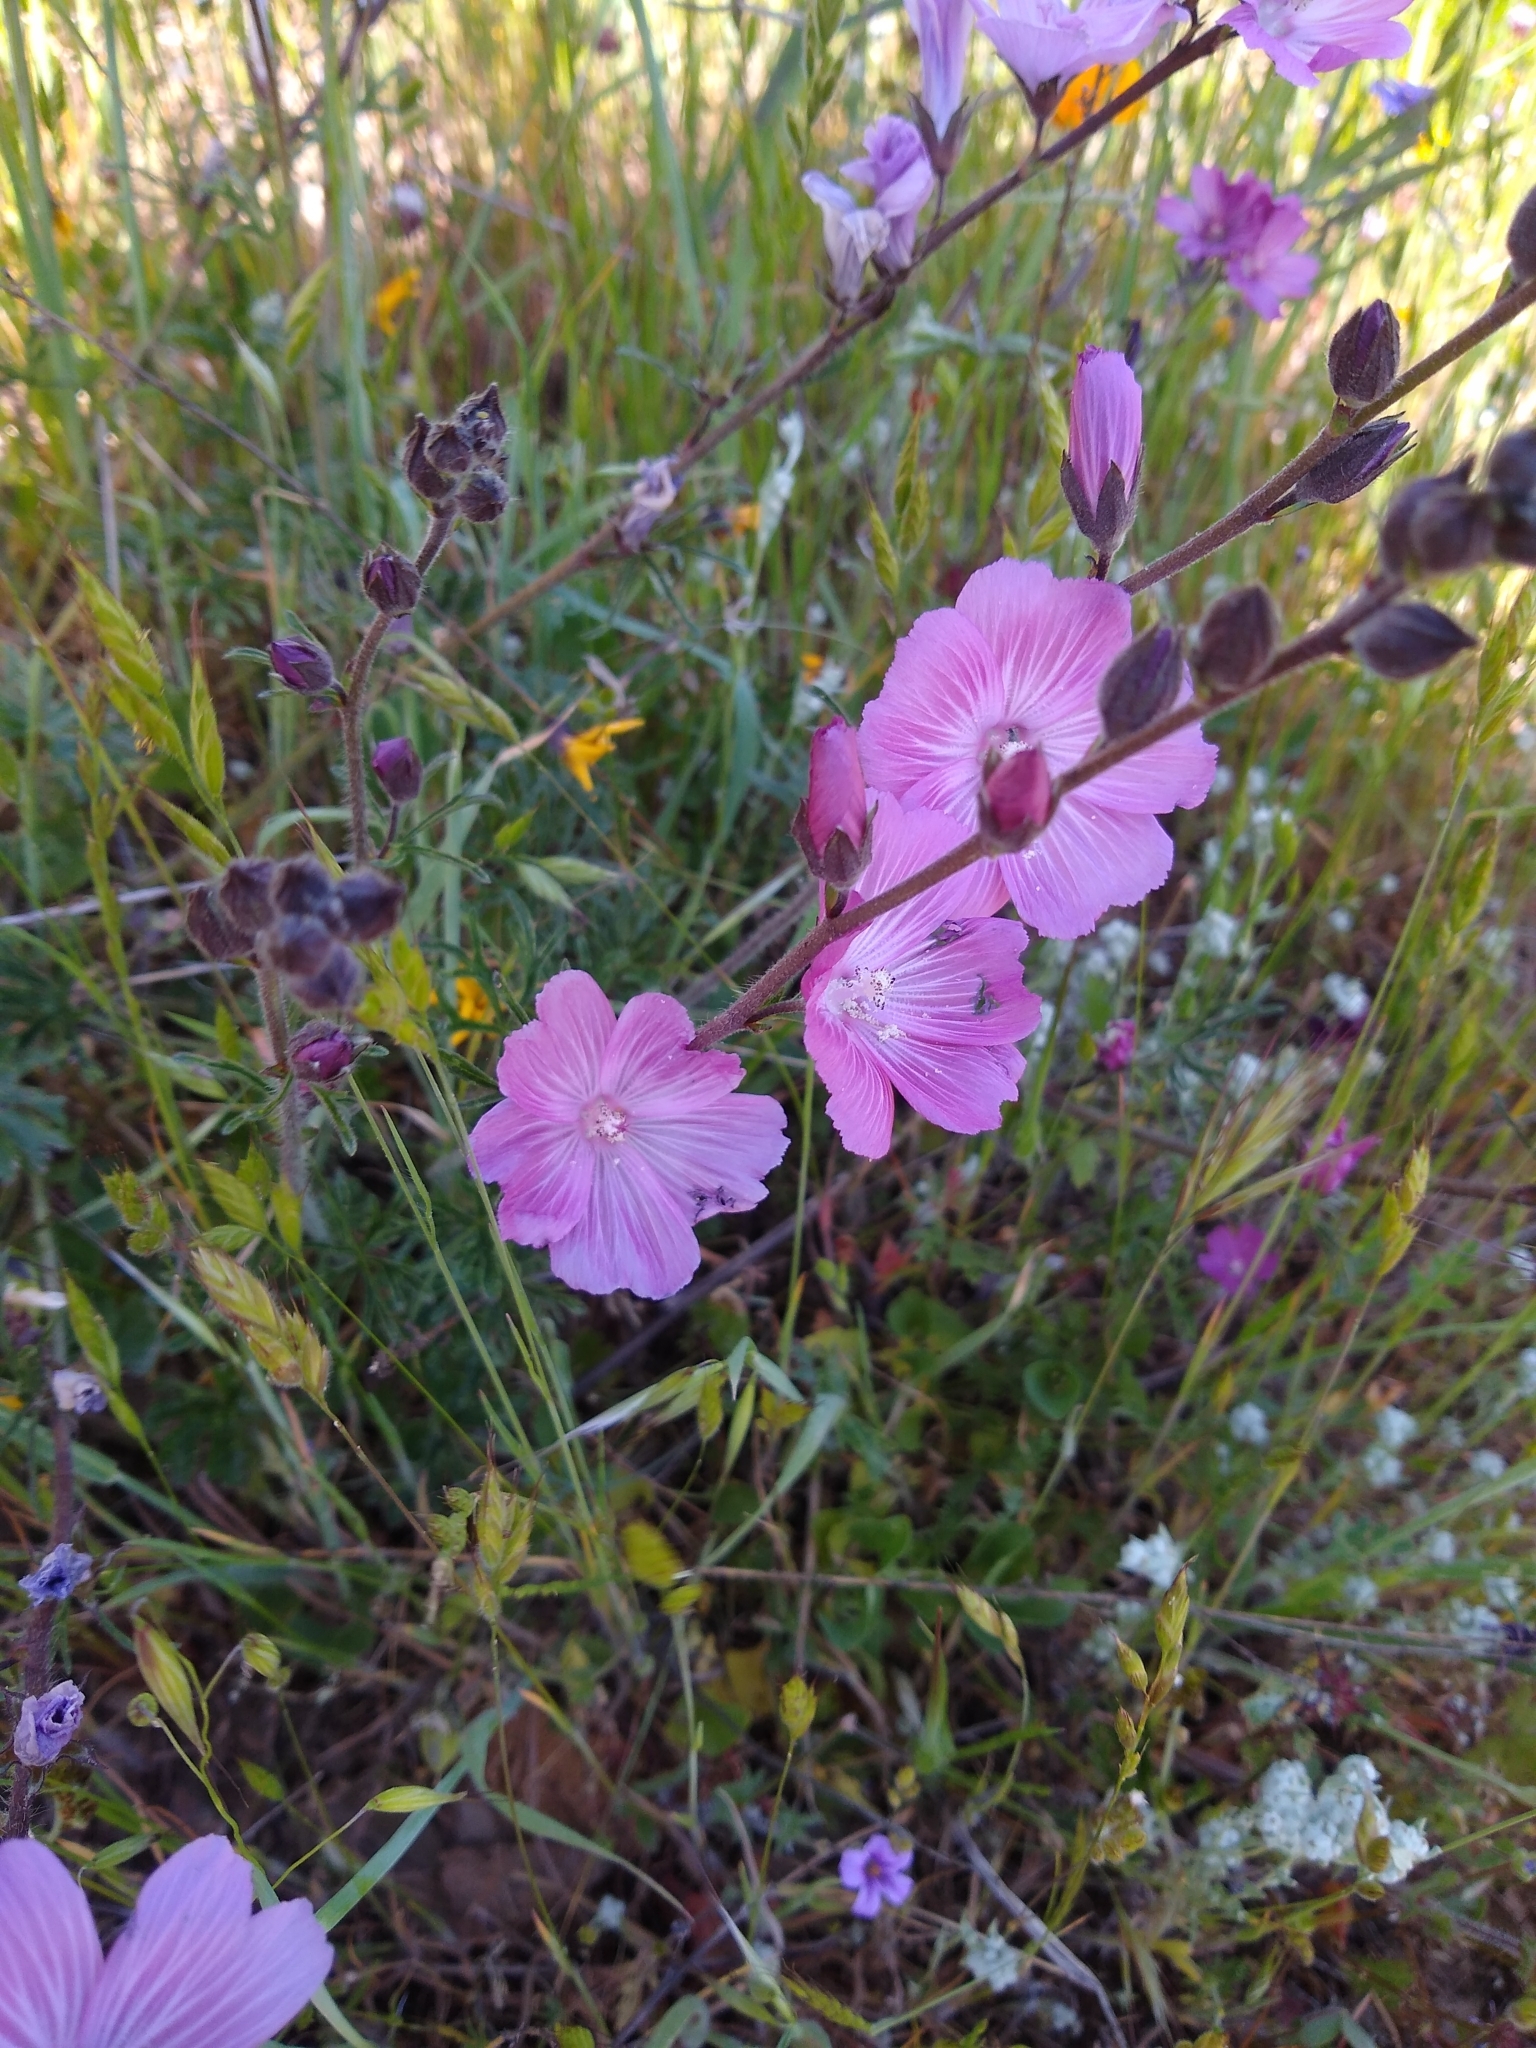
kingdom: Plantae
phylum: Tracheophyta
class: Magnoliopsida
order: Malvales
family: Malvaceae
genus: Sidalcea
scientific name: Sidalcea malviflora
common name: Greek mallow
